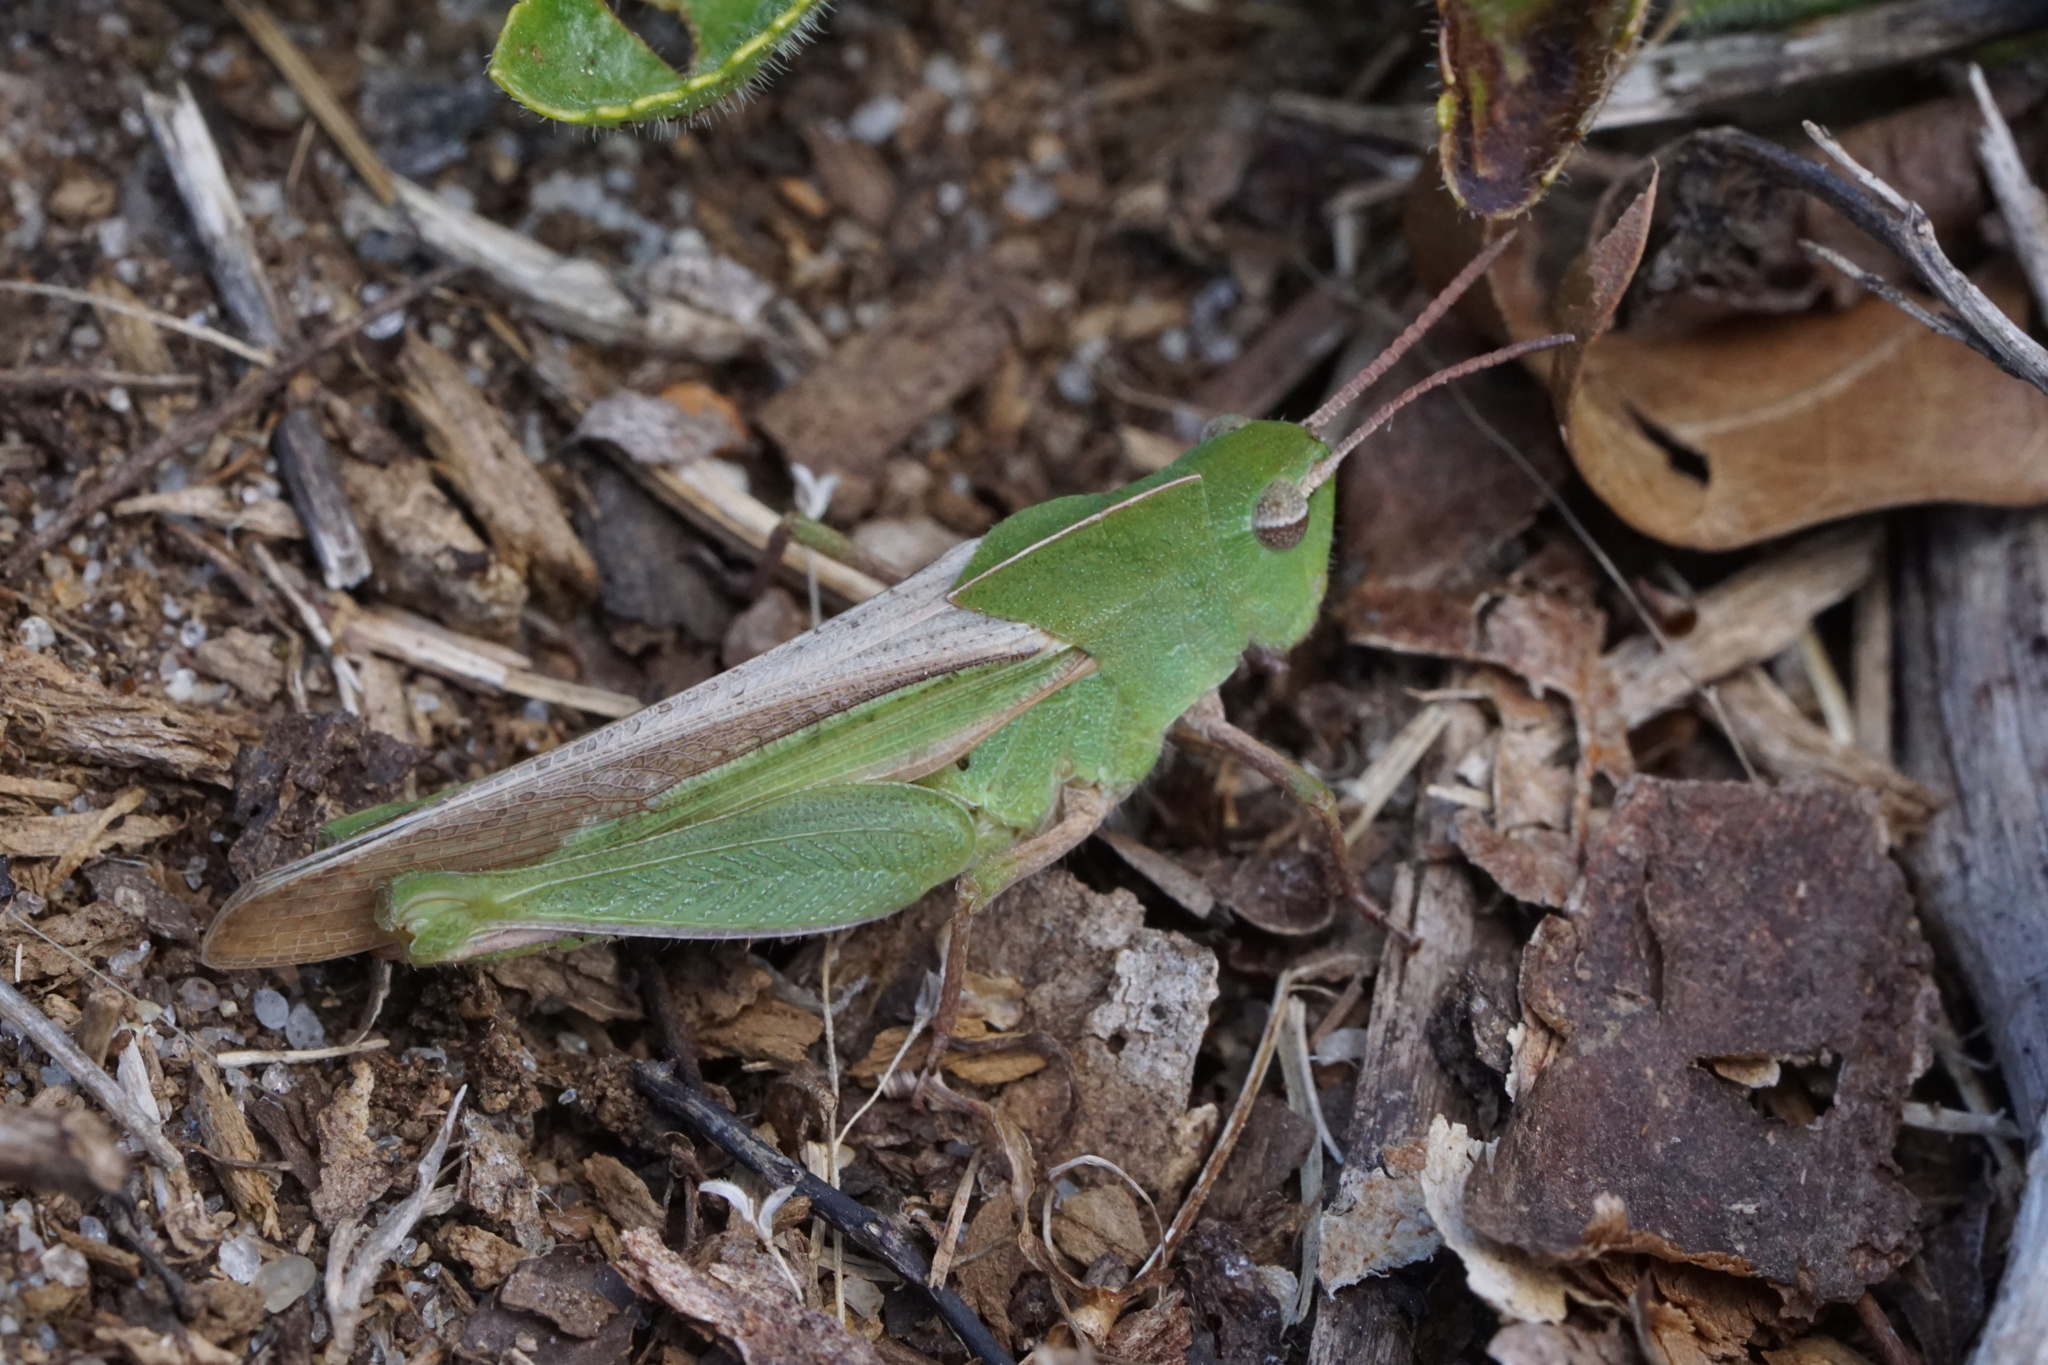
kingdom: Animalia
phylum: Arthropoda
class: Insecta
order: Orthoptera
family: Acrididae
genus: Chortophaga
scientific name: Chortophaga viridifasciata
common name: Green-striped grasshopper
